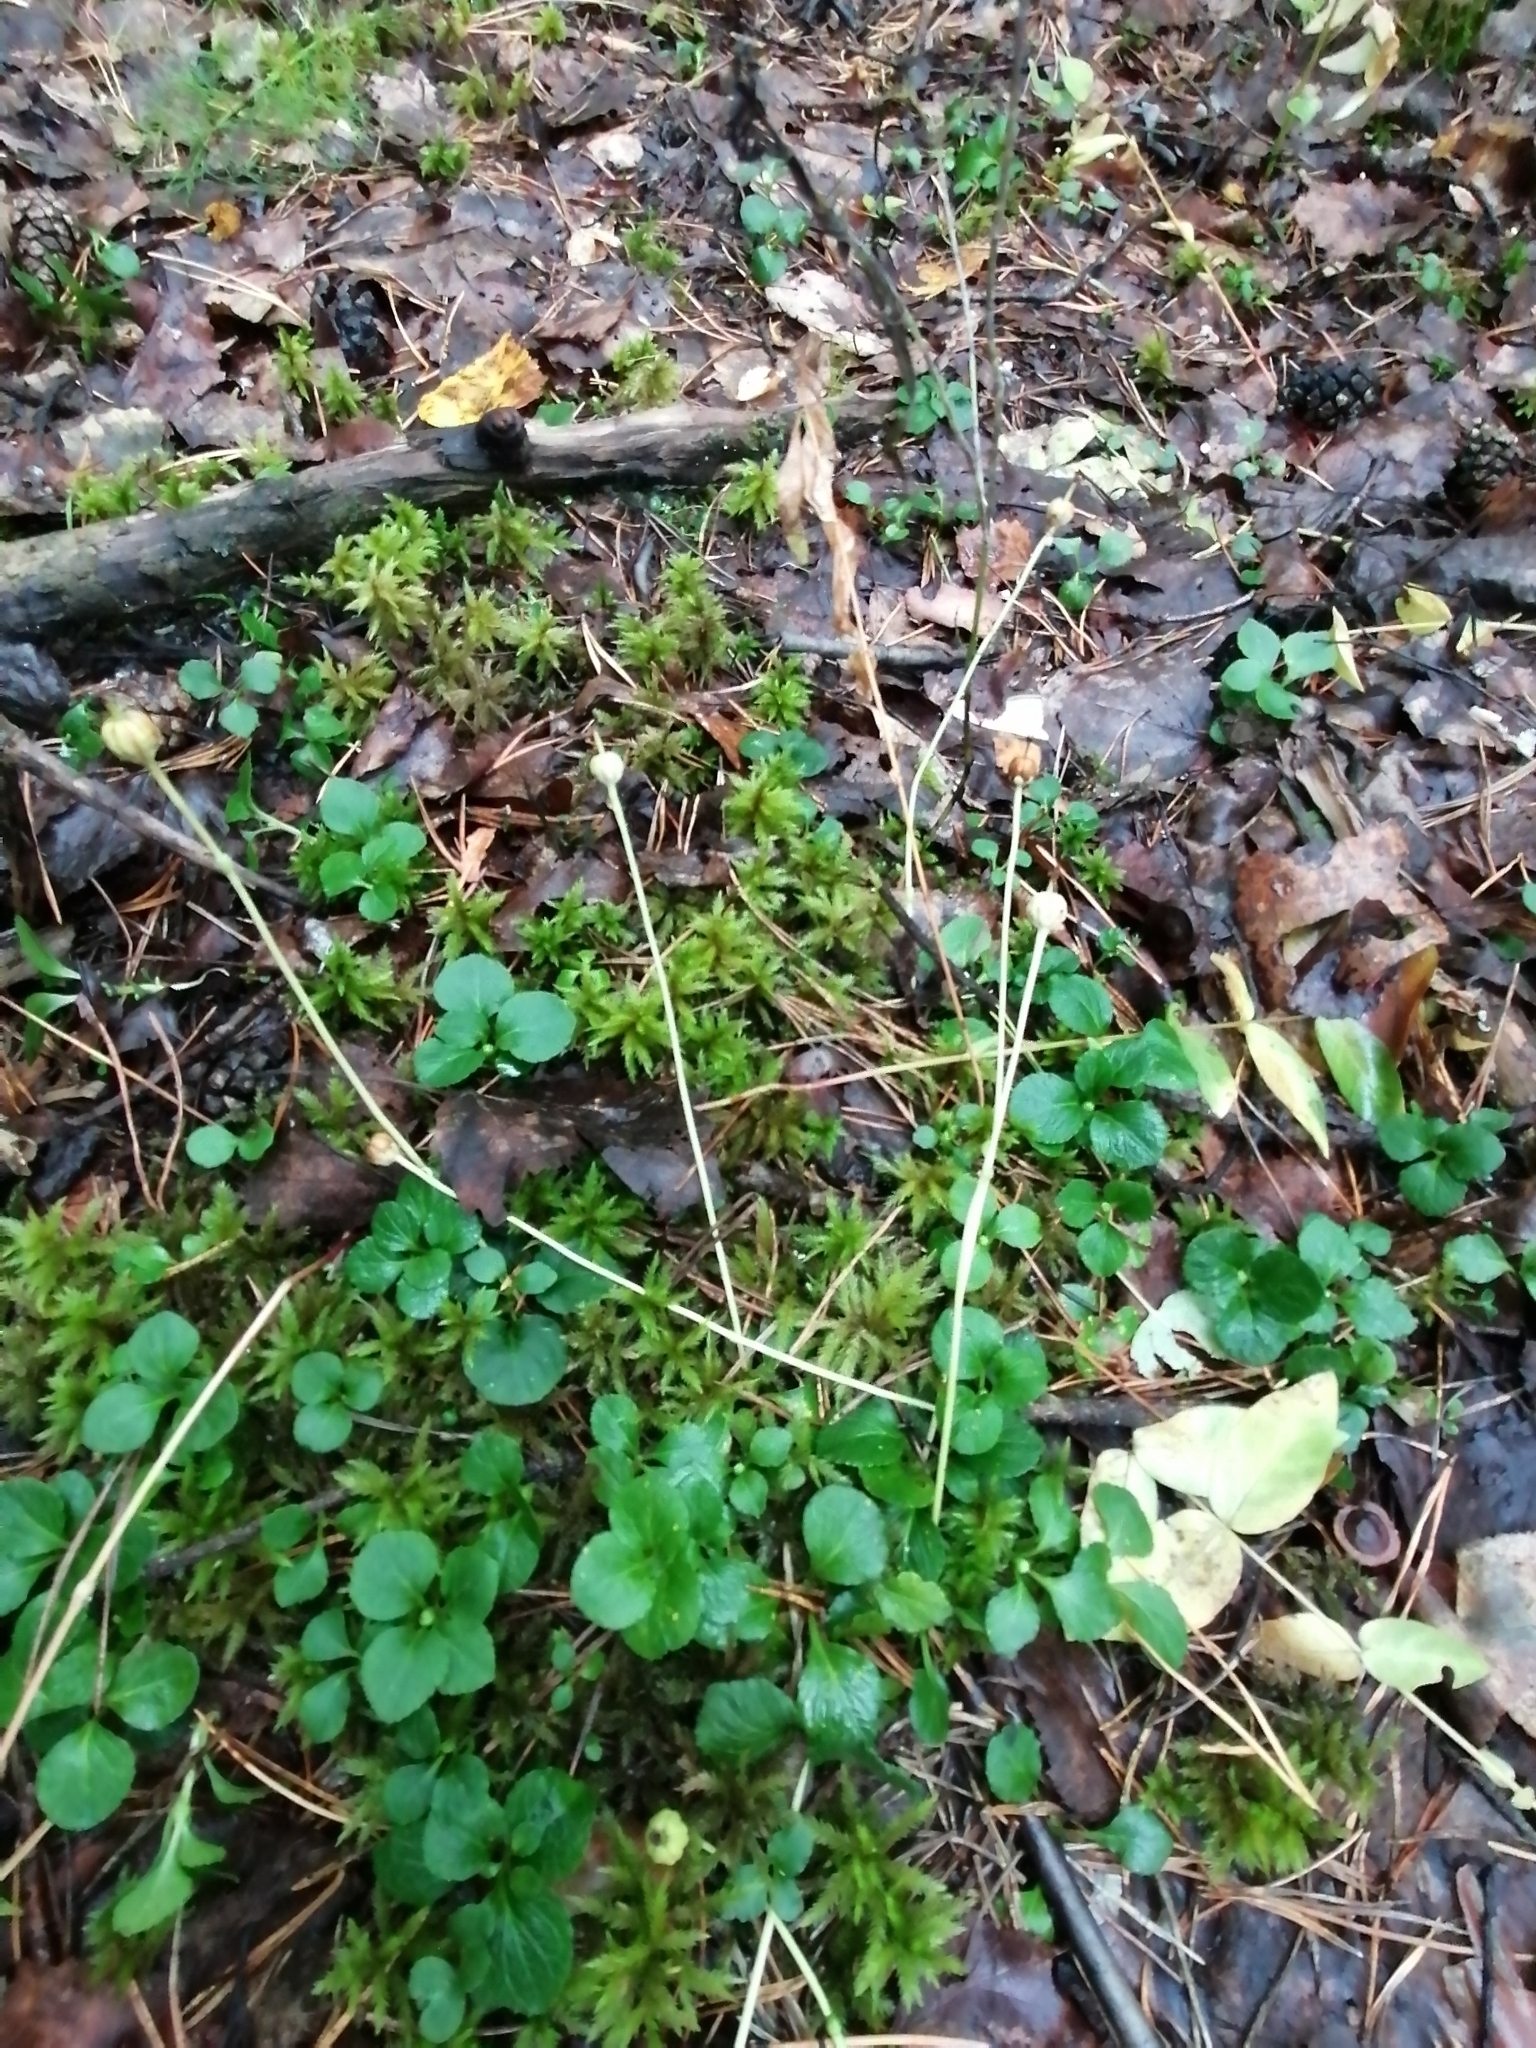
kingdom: Plantae
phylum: Tracheophyta
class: Magnoliopsida
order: Ericales
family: Ericaceae
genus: Moneses
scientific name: Moneses uniflora
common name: One-flowered wintergreen
